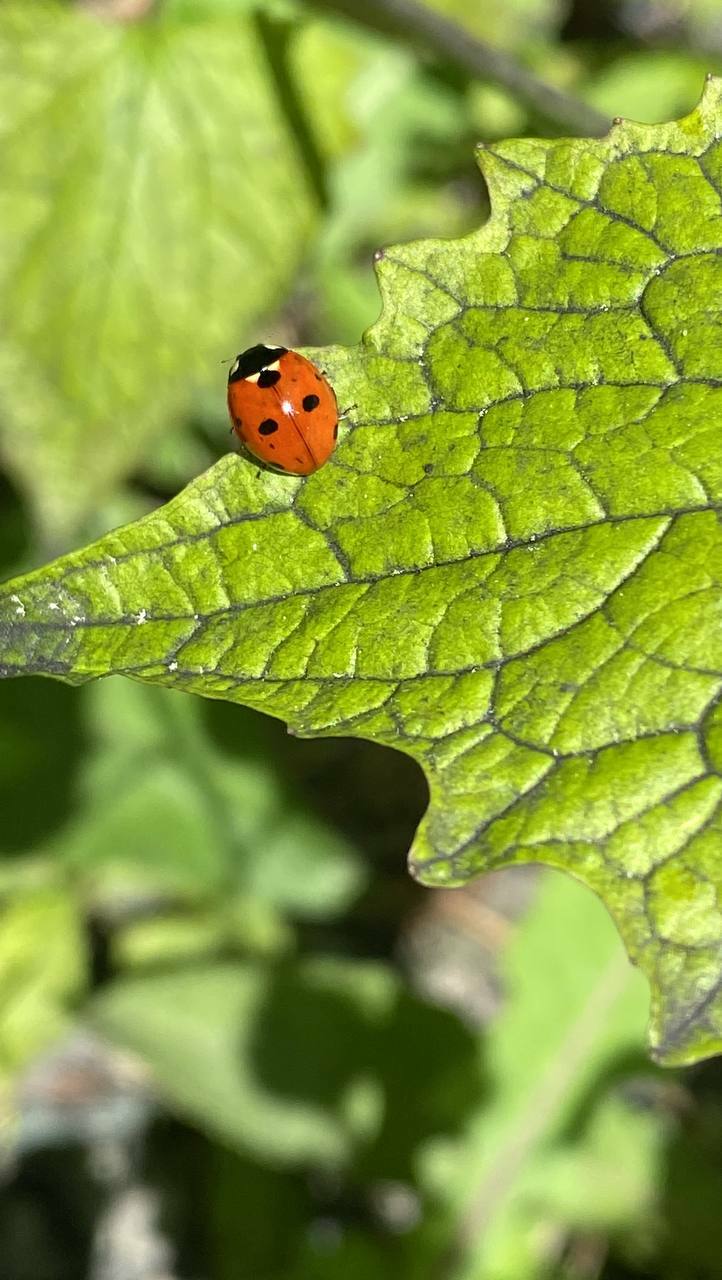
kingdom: Animalia
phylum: Arthropoda
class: Insecta
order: Coleoptera
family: Coccinellidae
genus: Coccinella
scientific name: Coccinella septempunctata
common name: Sevenspotted lady beetle
